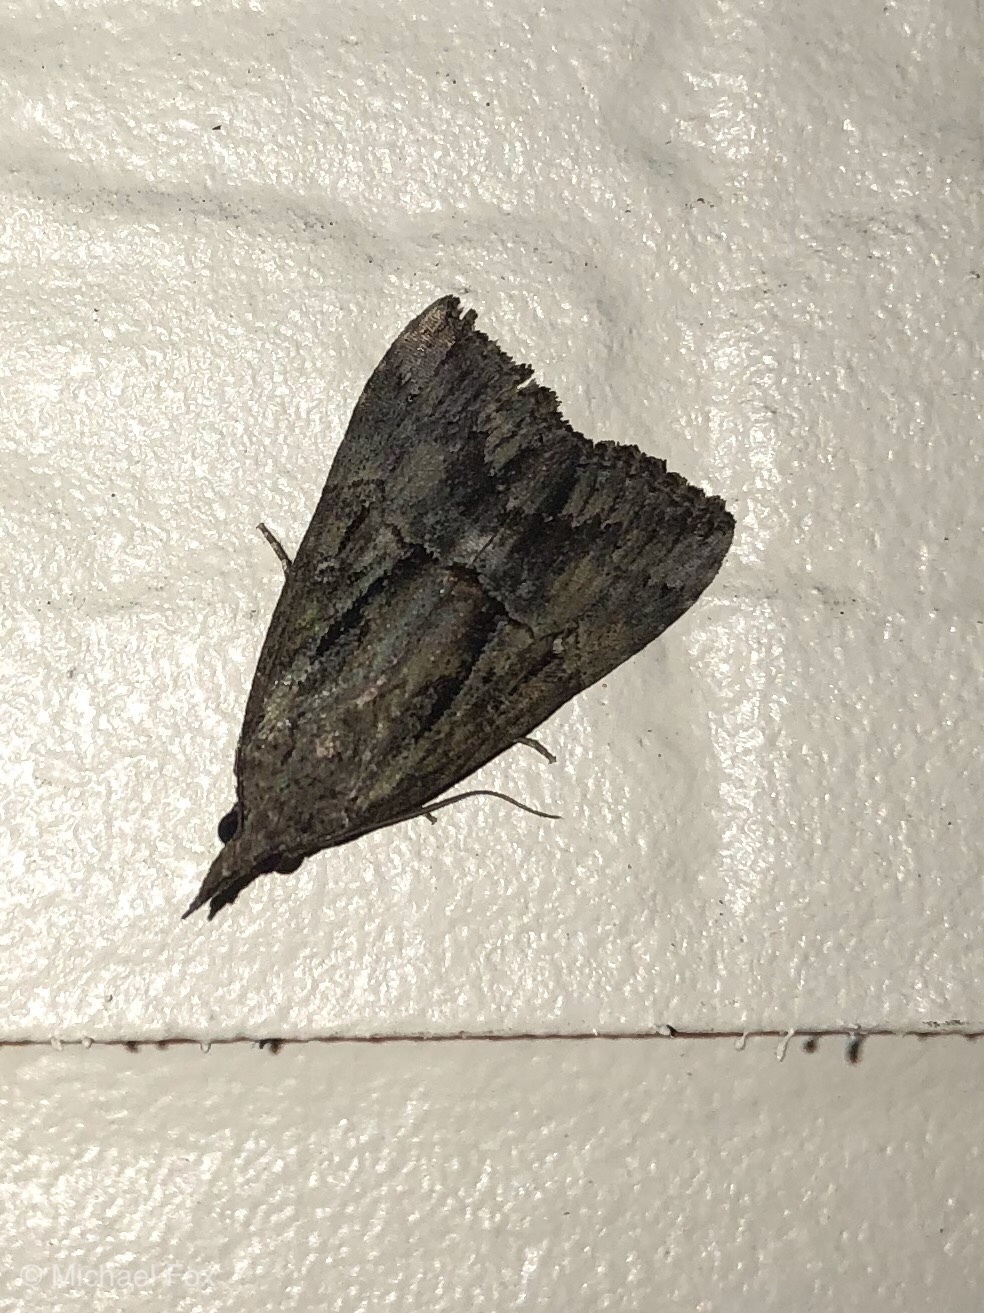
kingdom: Animalia
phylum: Arthropoda
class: Insecta
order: Lepidoptera
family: Erebidae
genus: Hypena
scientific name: Hypena scabra
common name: Green cloverworm
